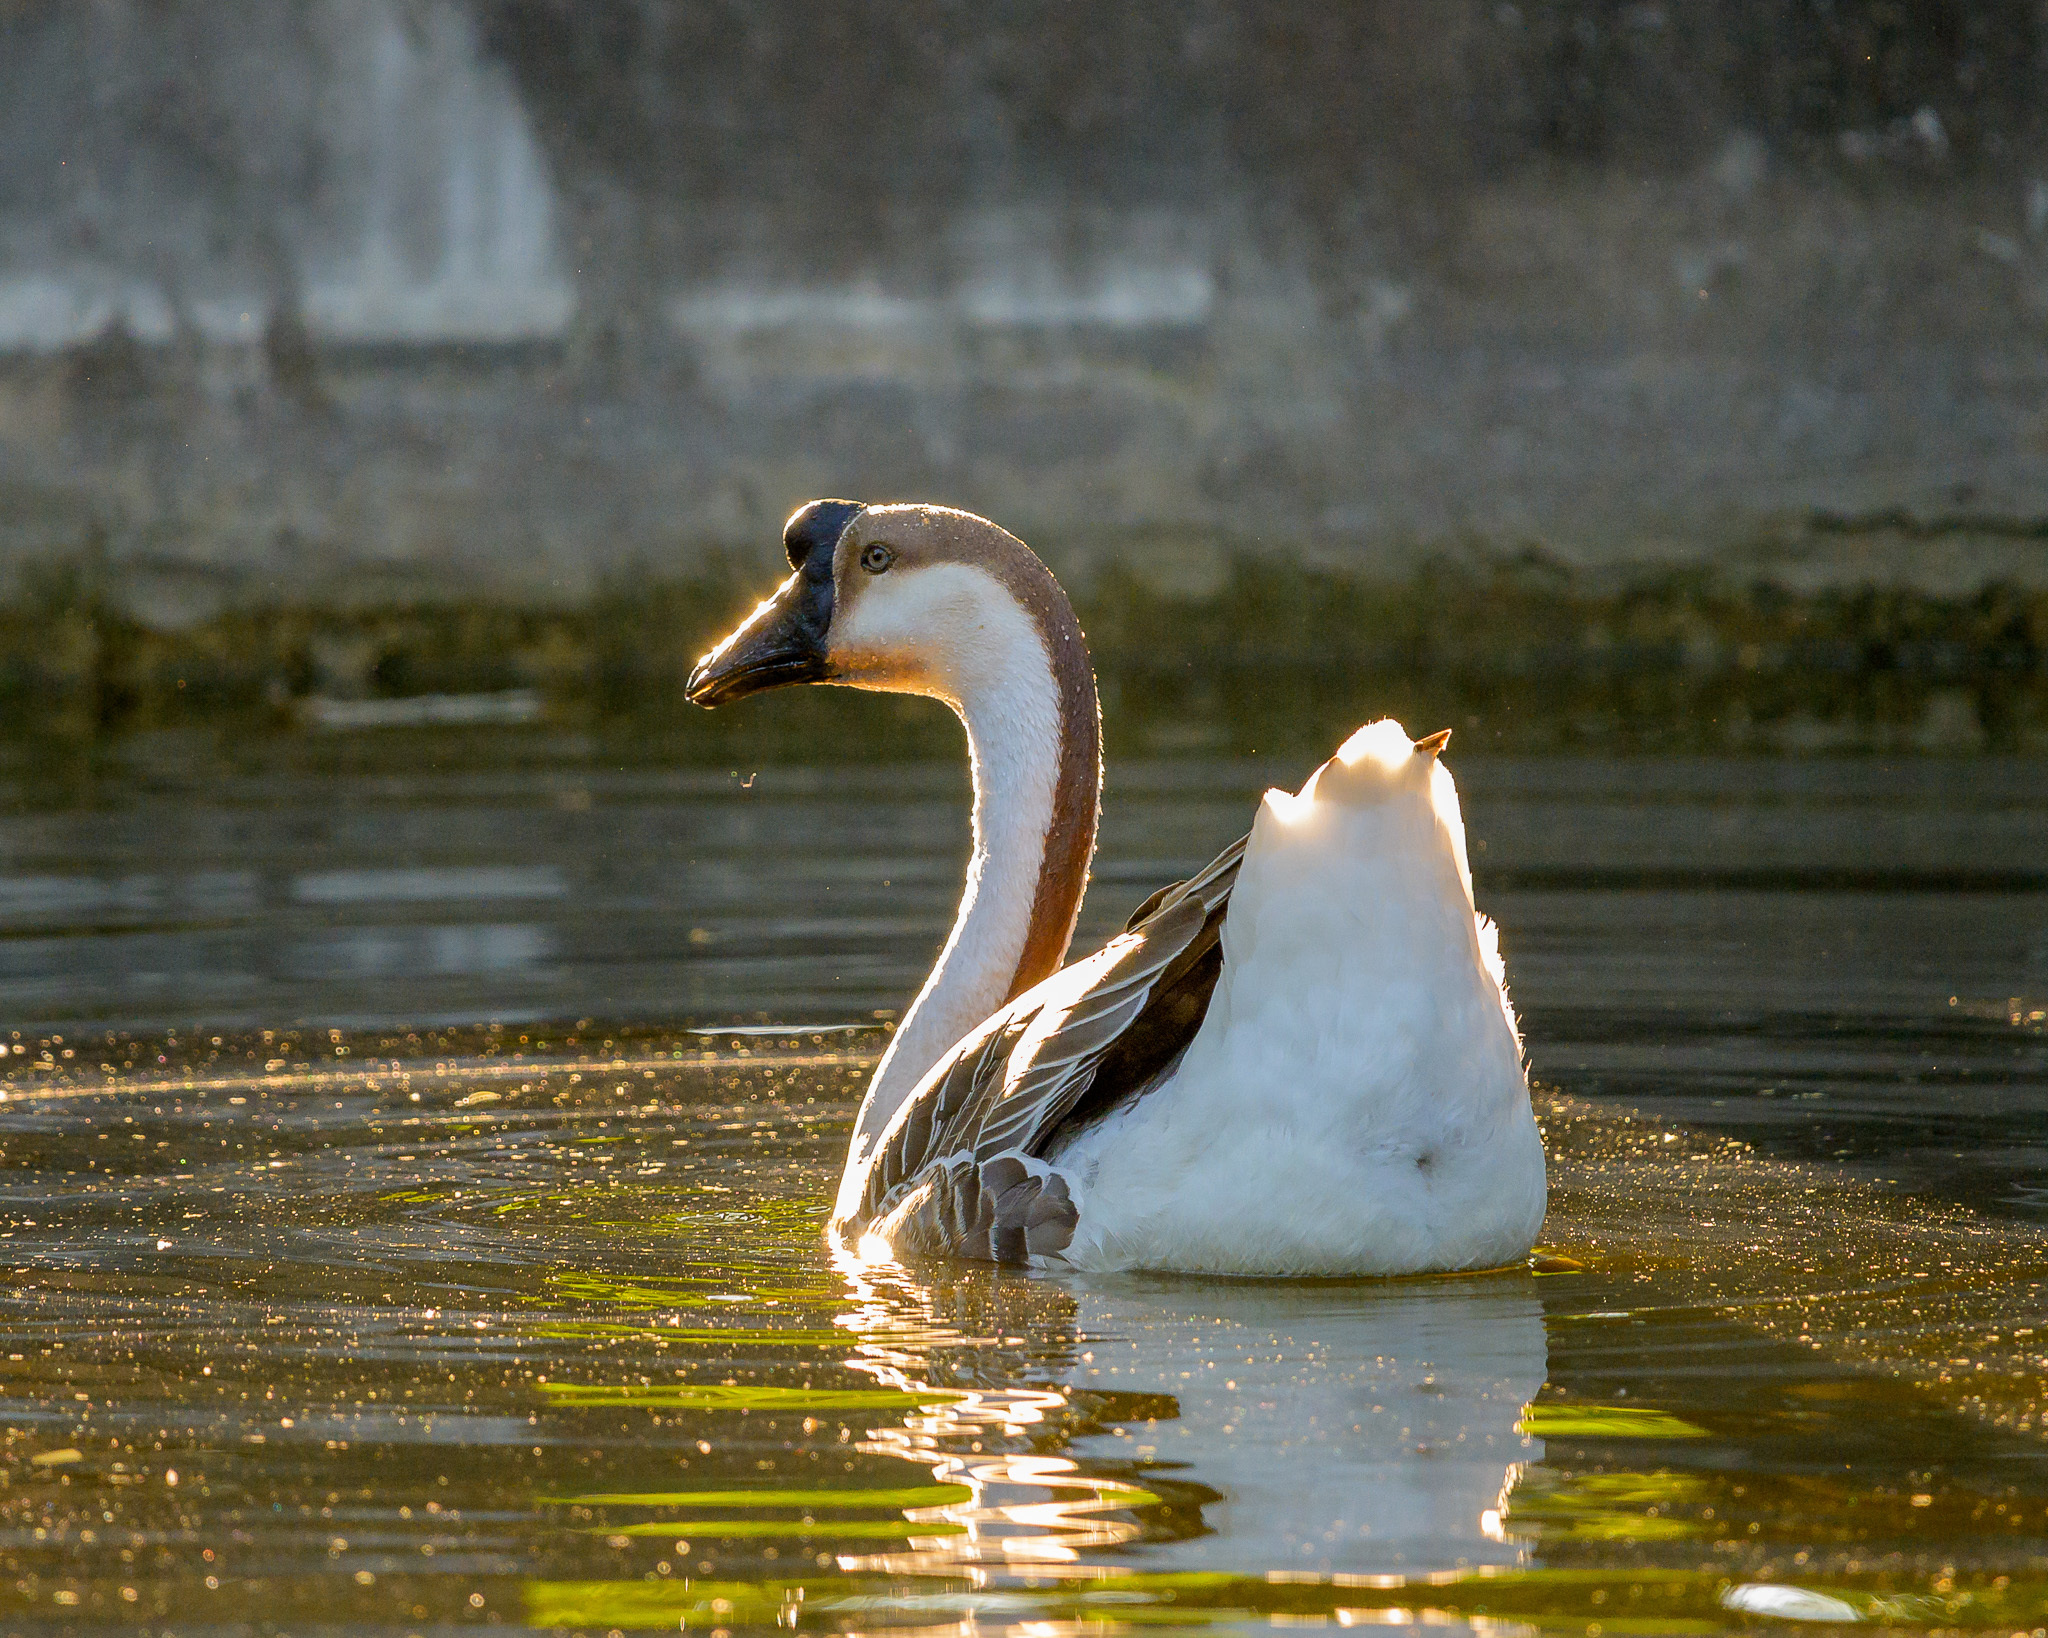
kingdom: Animalia
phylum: Chordata
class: Aves
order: Anseriformes
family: Anatidae
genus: Anser
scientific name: Anser cygnoides
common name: Swan goose
